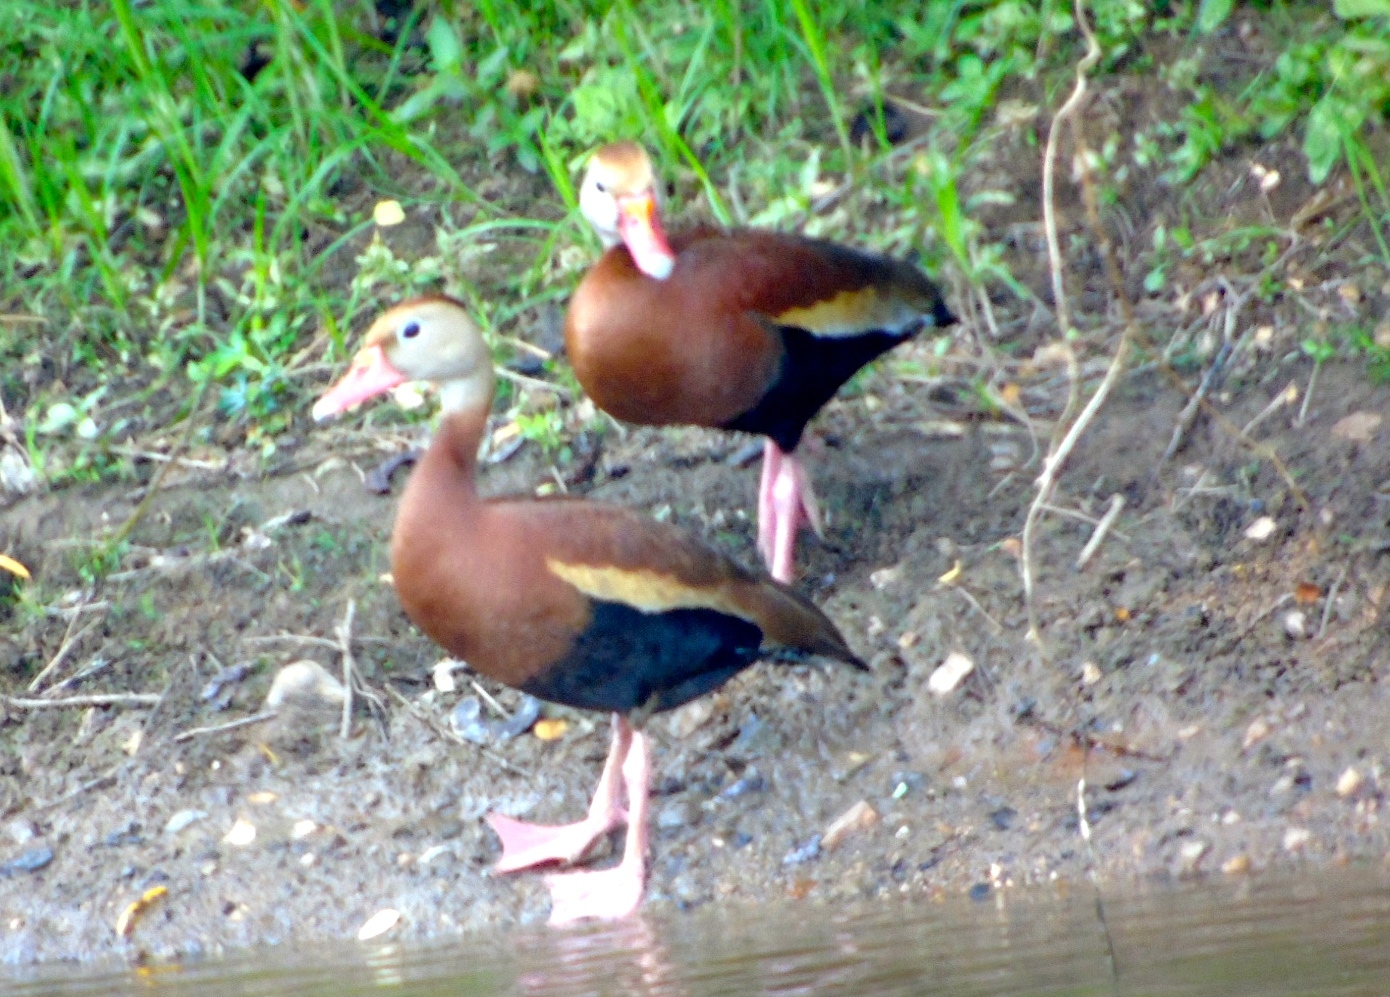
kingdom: Animalia
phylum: Chordata
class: Aves
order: Anseriformes
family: Anatidae
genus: Dendrocygna
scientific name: Dendrocygna autumnalis
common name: Black-bellied whistling duck
